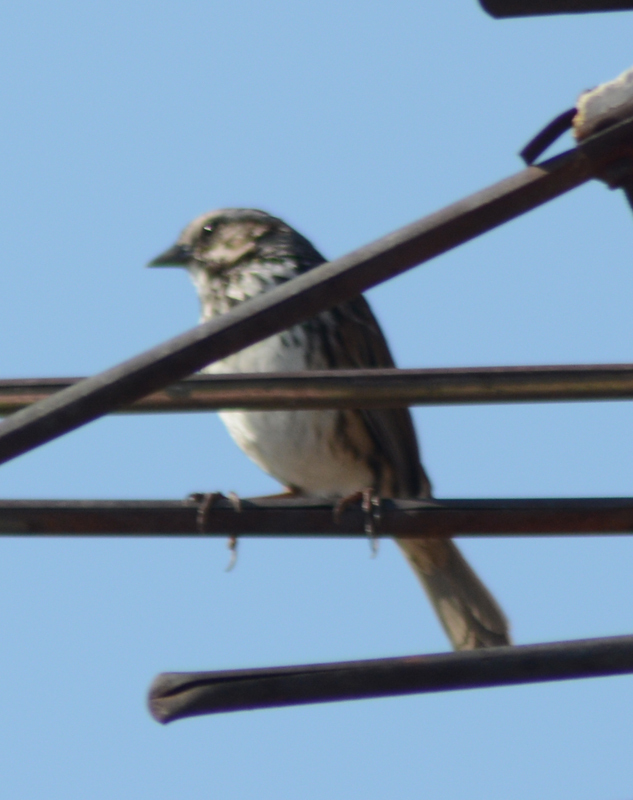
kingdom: Animalia
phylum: Chordata
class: Aves
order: Passeriformes
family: Passerellidae
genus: Melospiza
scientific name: Melospiza melodia
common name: Song sparrow
